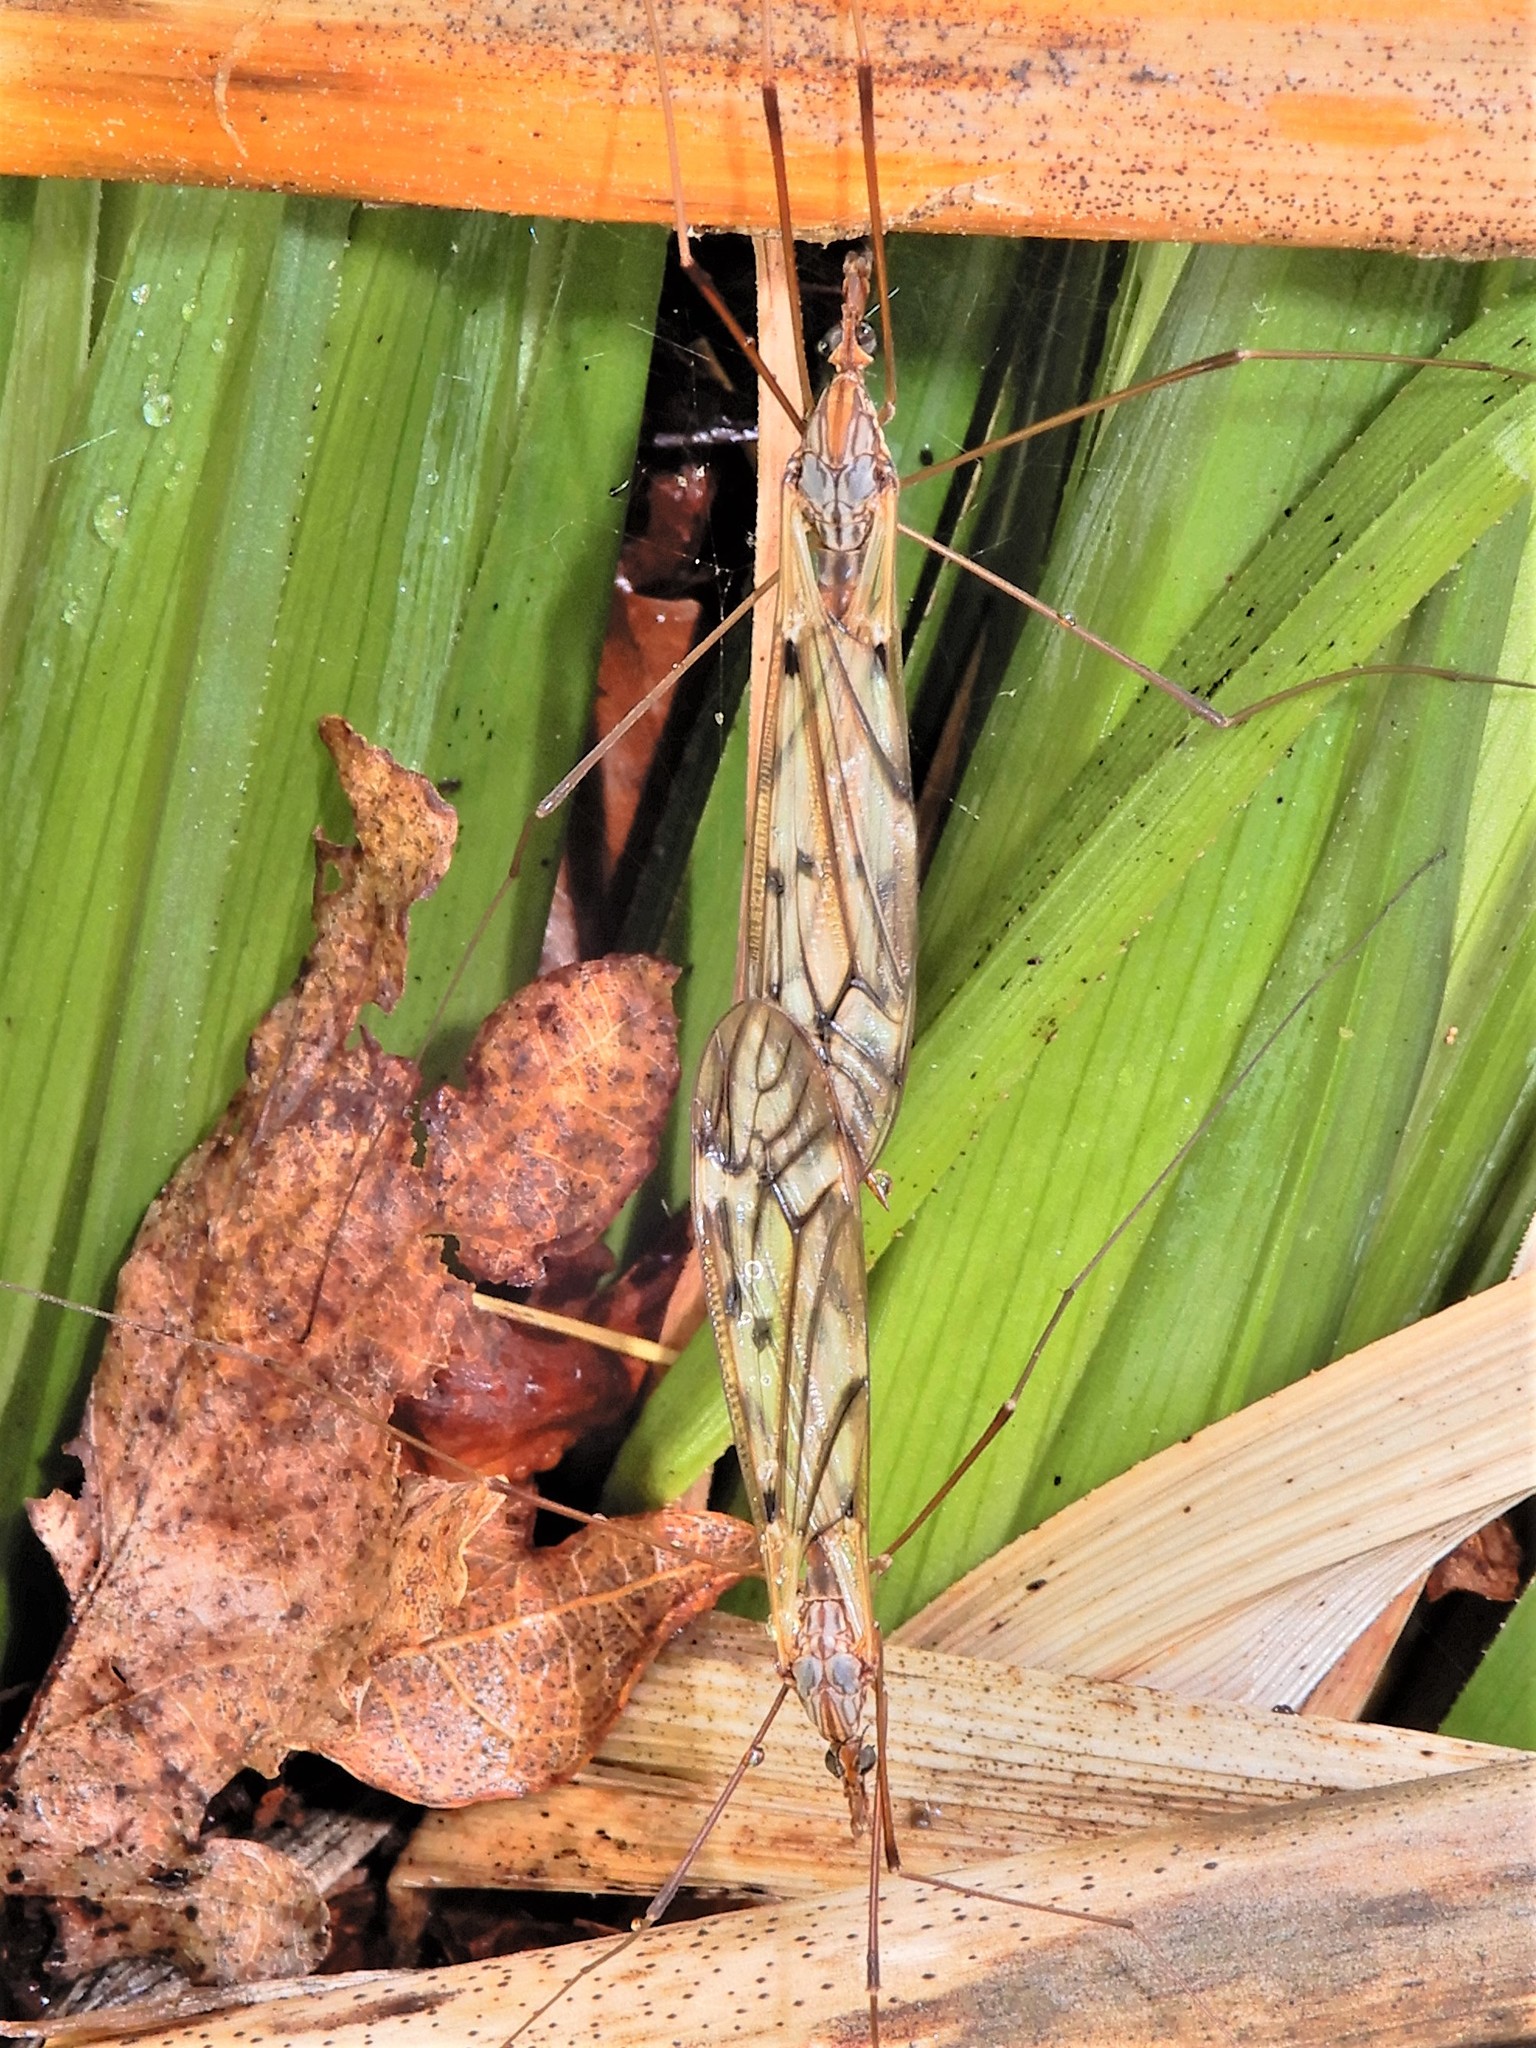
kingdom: Animalia
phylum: Arthropoda
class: Insecta
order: Diptera
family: Tipulidae
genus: Zelandotipula
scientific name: Zelandotipula novarae
